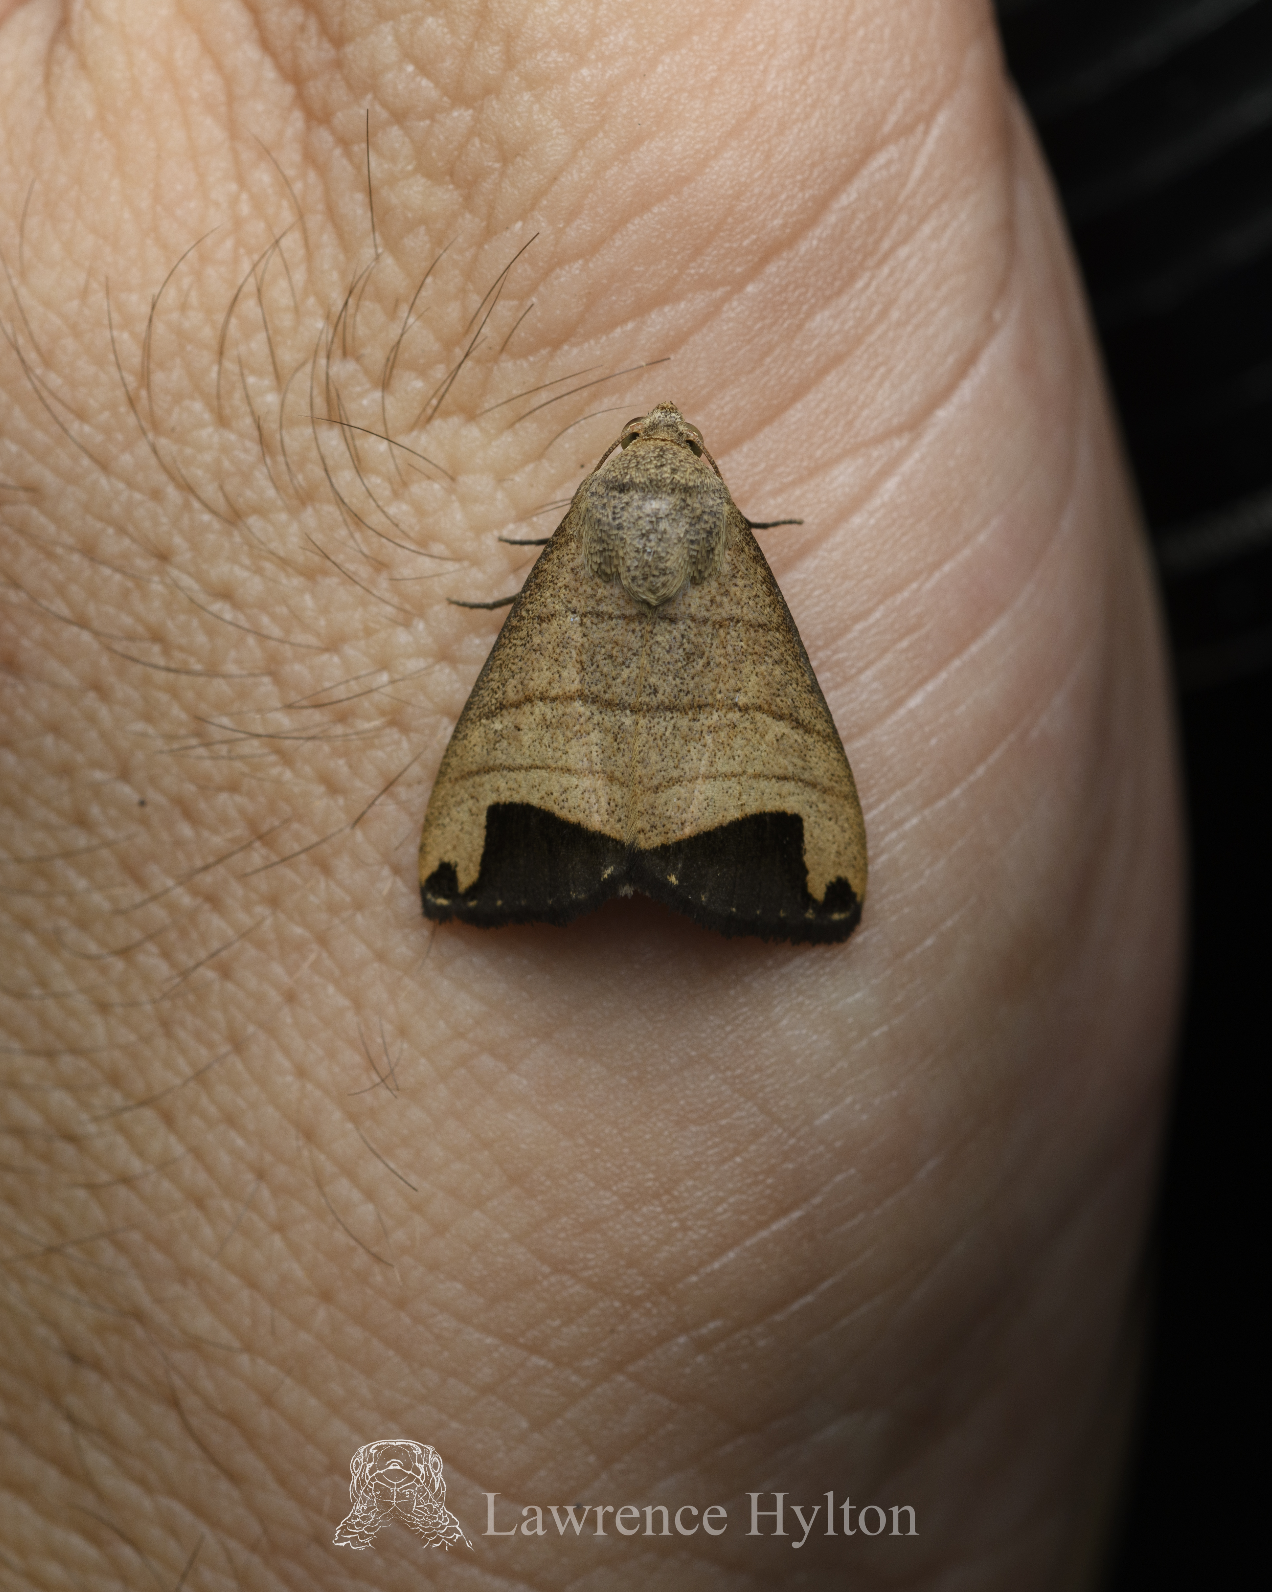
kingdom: Animalia
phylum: Arthropoda
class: Insecta
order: Lepidoptera
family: Erebidae
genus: Bocula
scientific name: Bocula marginata
